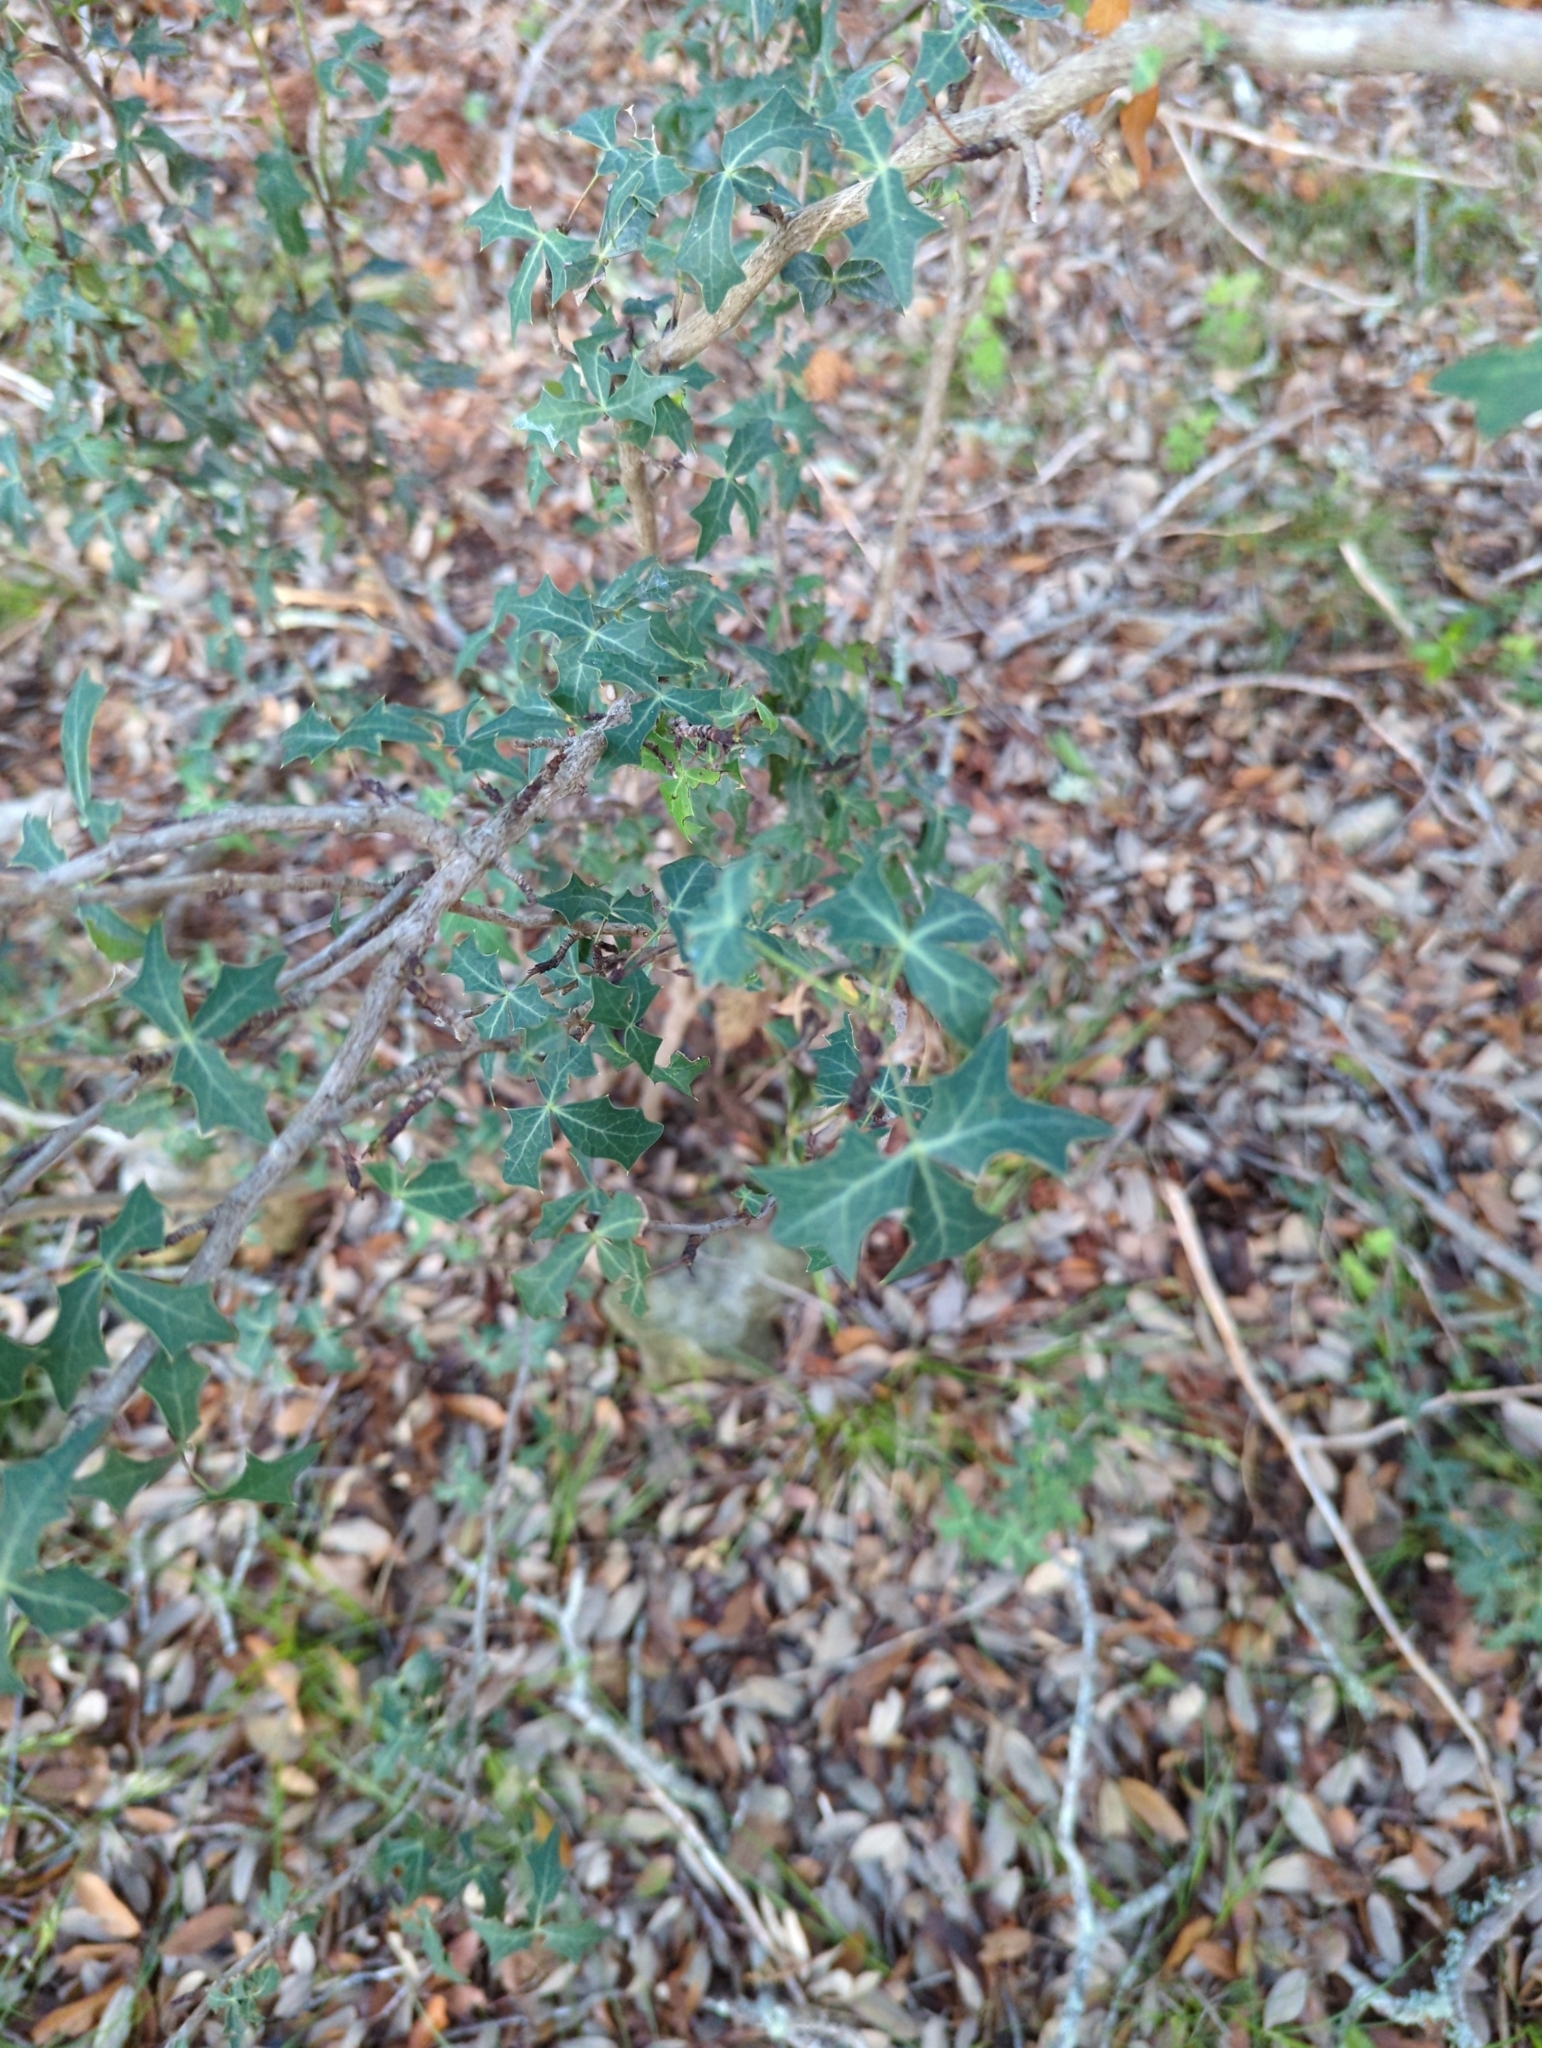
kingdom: Plantae
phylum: Tracheophyta
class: Magnoliopsida
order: Ranunculales
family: Berberidaceae
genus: Alloberberis
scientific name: Alloberberis trifoliolata
